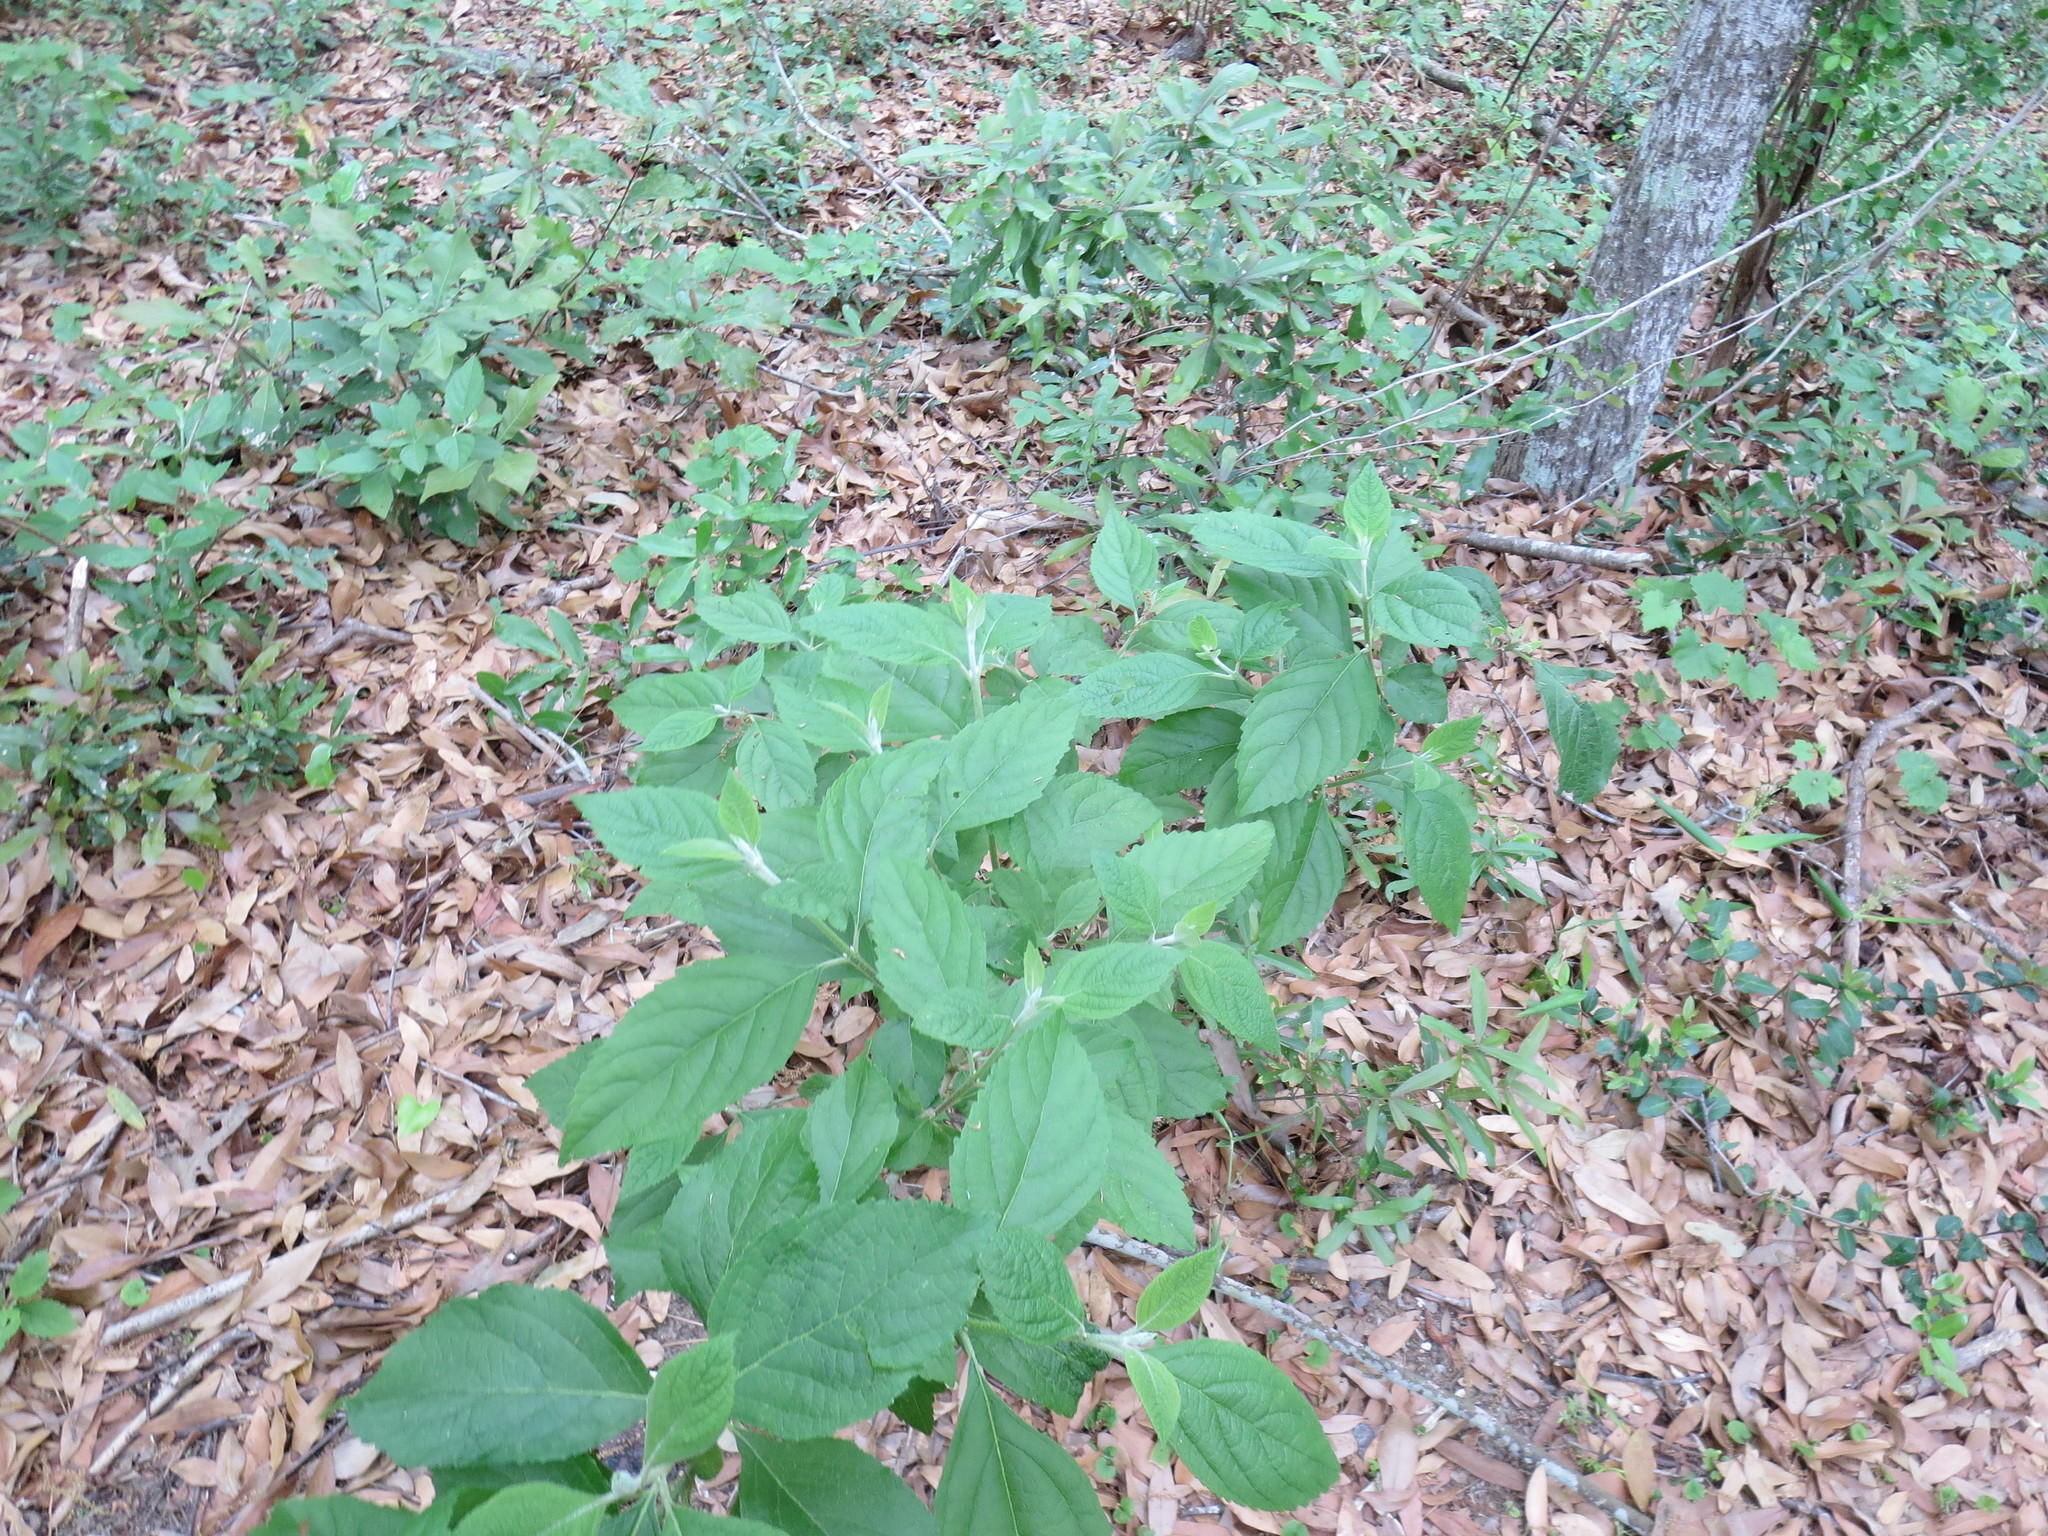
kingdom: Plantae
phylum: Tracheophyta
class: Magnoliopsida
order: Lamiales
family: Lamiaceae
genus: Callicarpa
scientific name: Callicarpa americana
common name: American beautyberry
